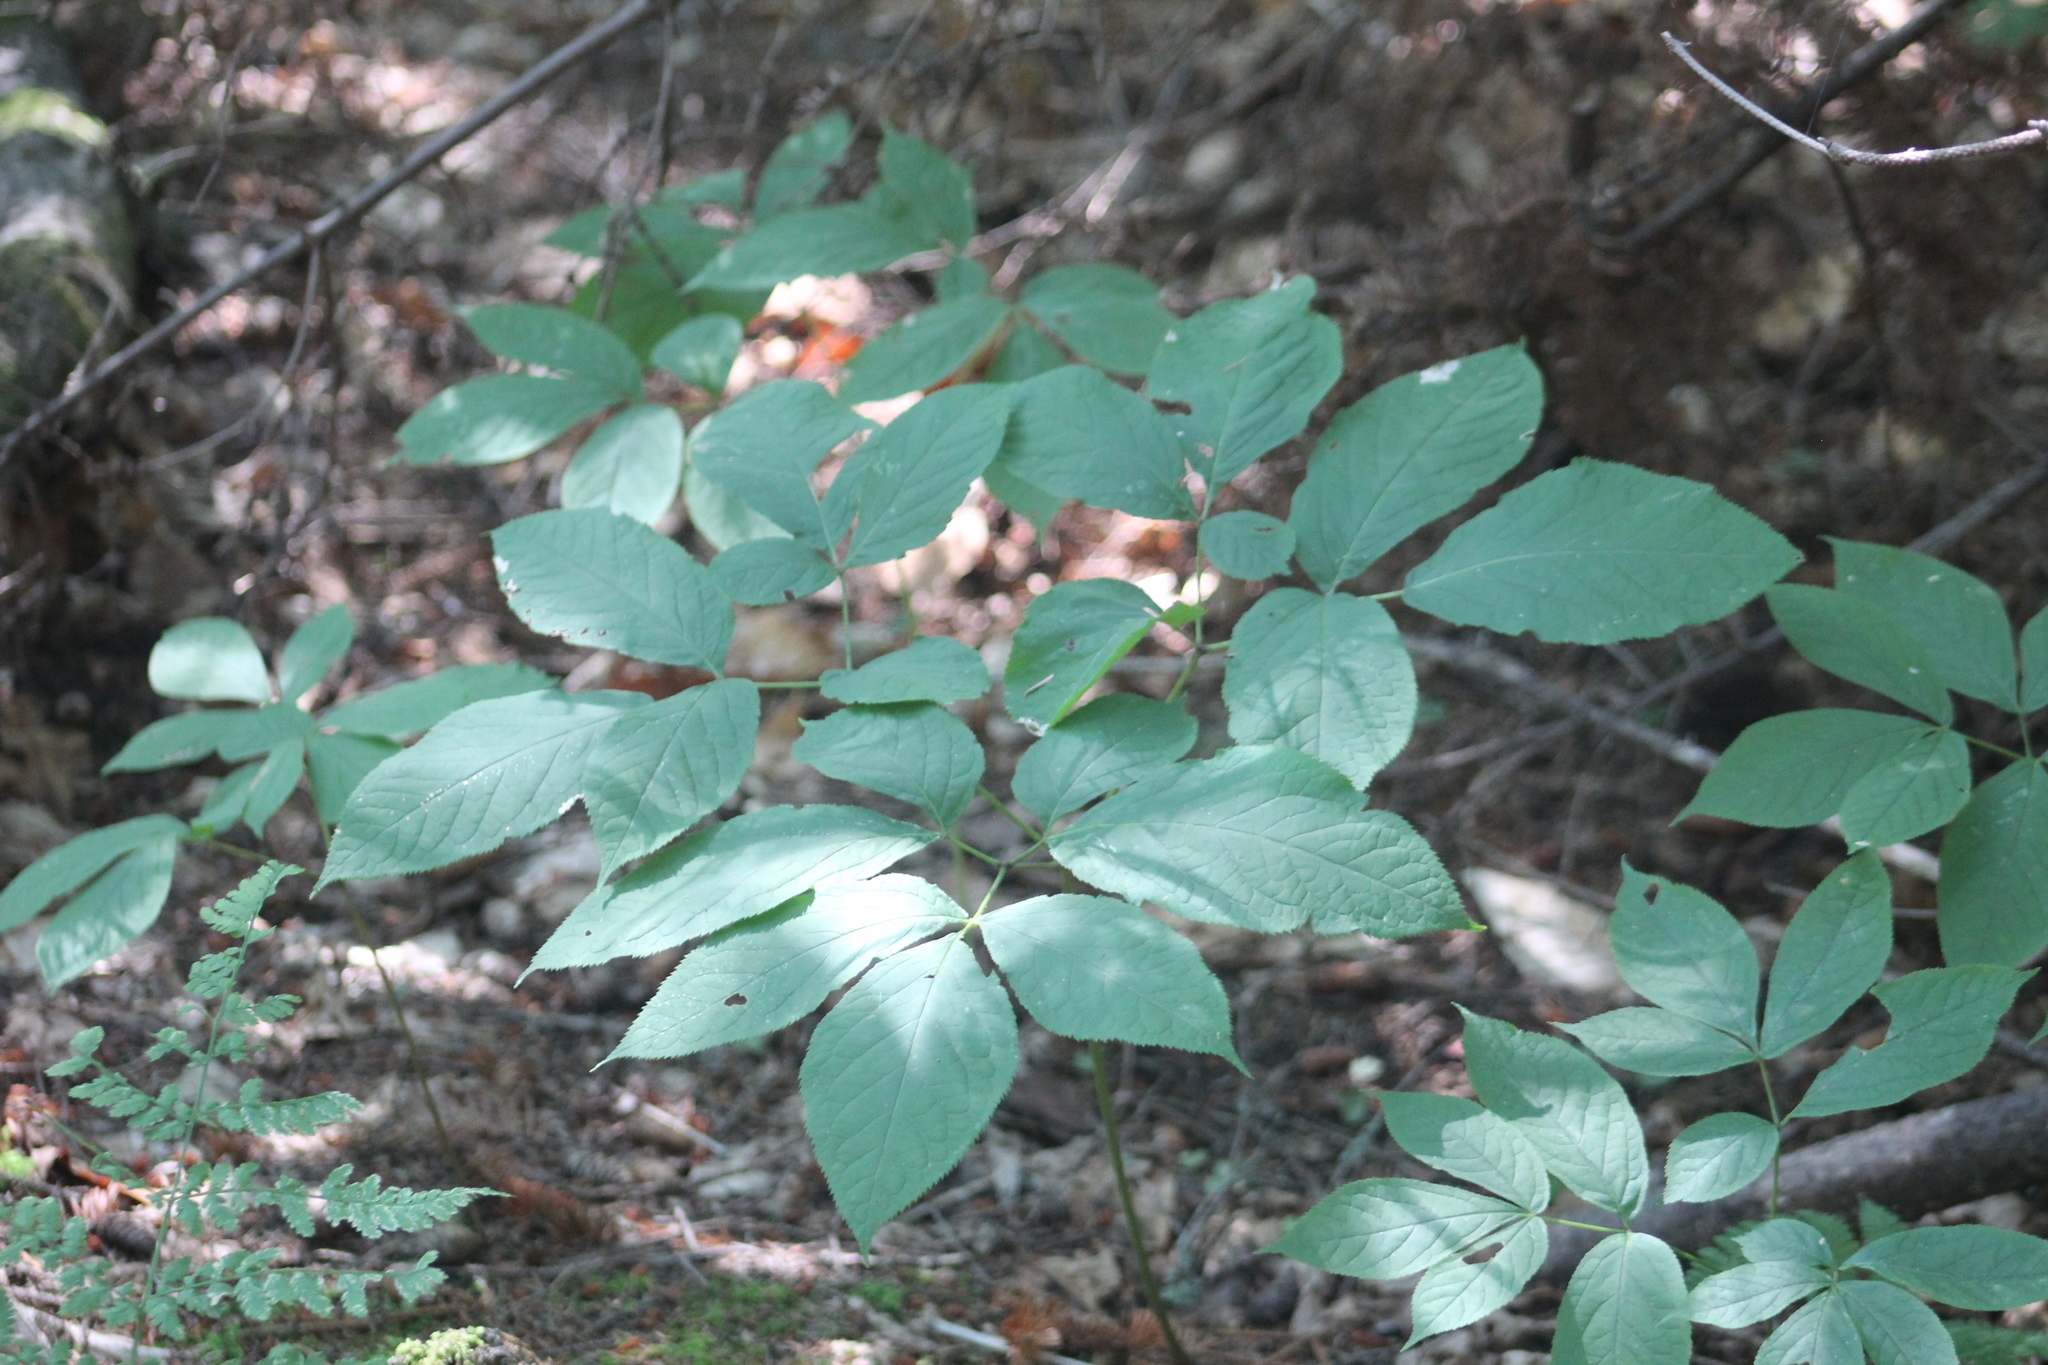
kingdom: Plantae
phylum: Tracheophyta
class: Magnoliopsida
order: Apiales
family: Araliaceae
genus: Aralia
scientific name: Aralia nudicaulis
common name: Wild sarsaparilla
